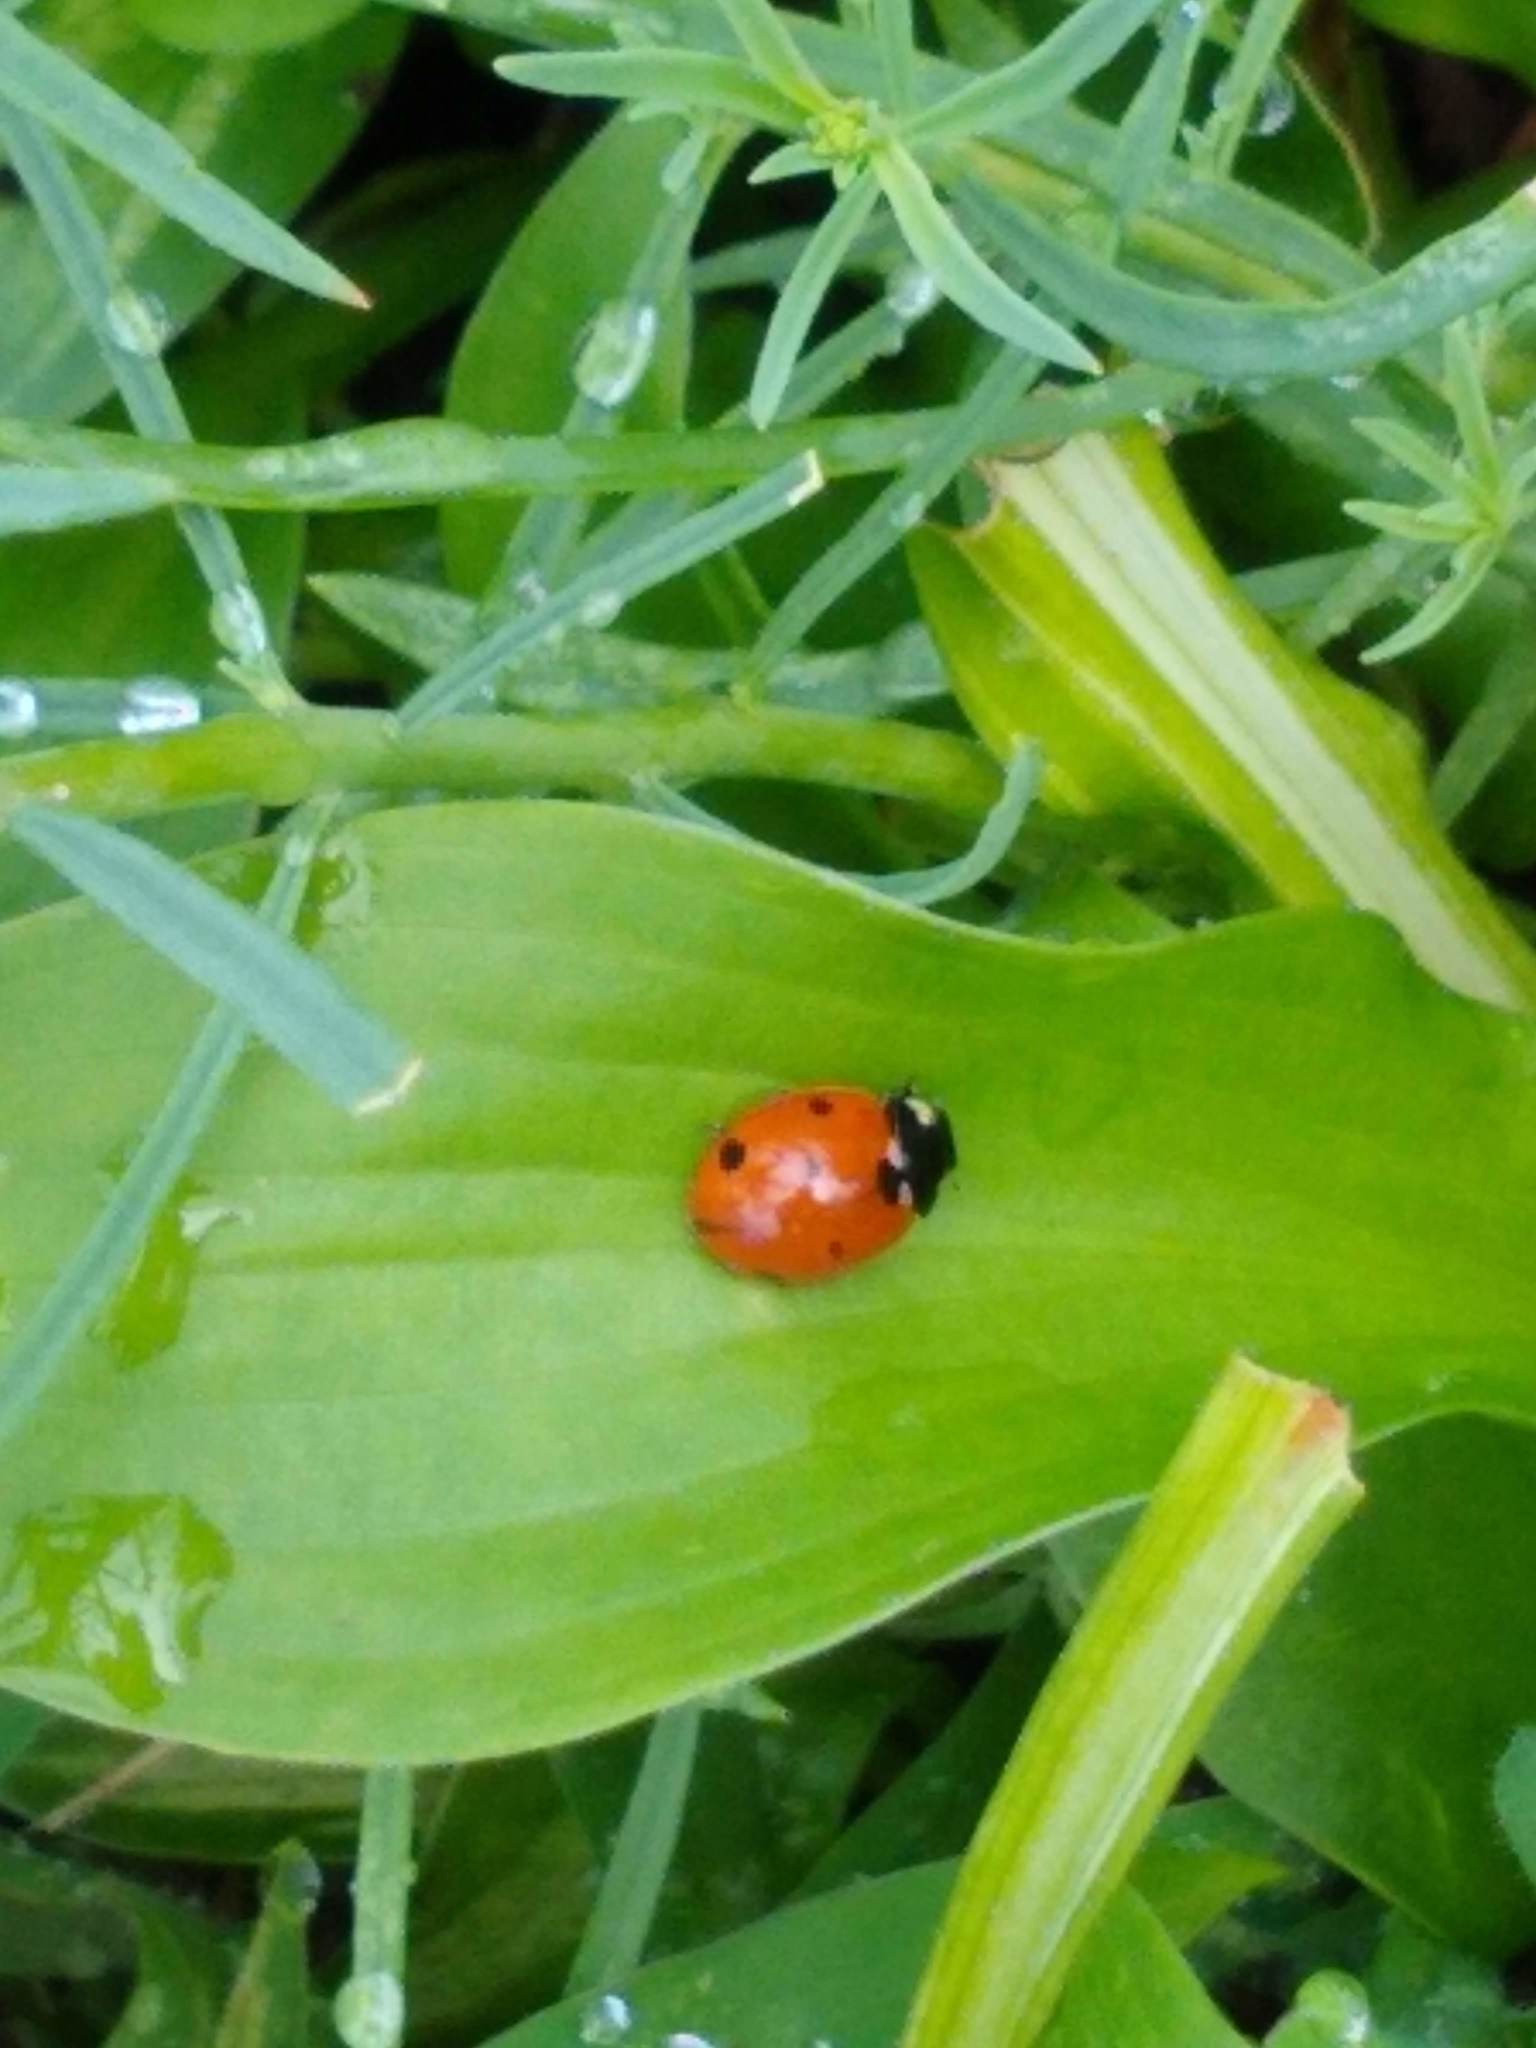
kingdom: Animalia
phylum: Arthropoda
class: Insecta
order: Coleoptera
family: Coccinellidae
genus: Coccinella
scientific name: Coccinella septempunctata
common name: Sevenspotted lady beetle
